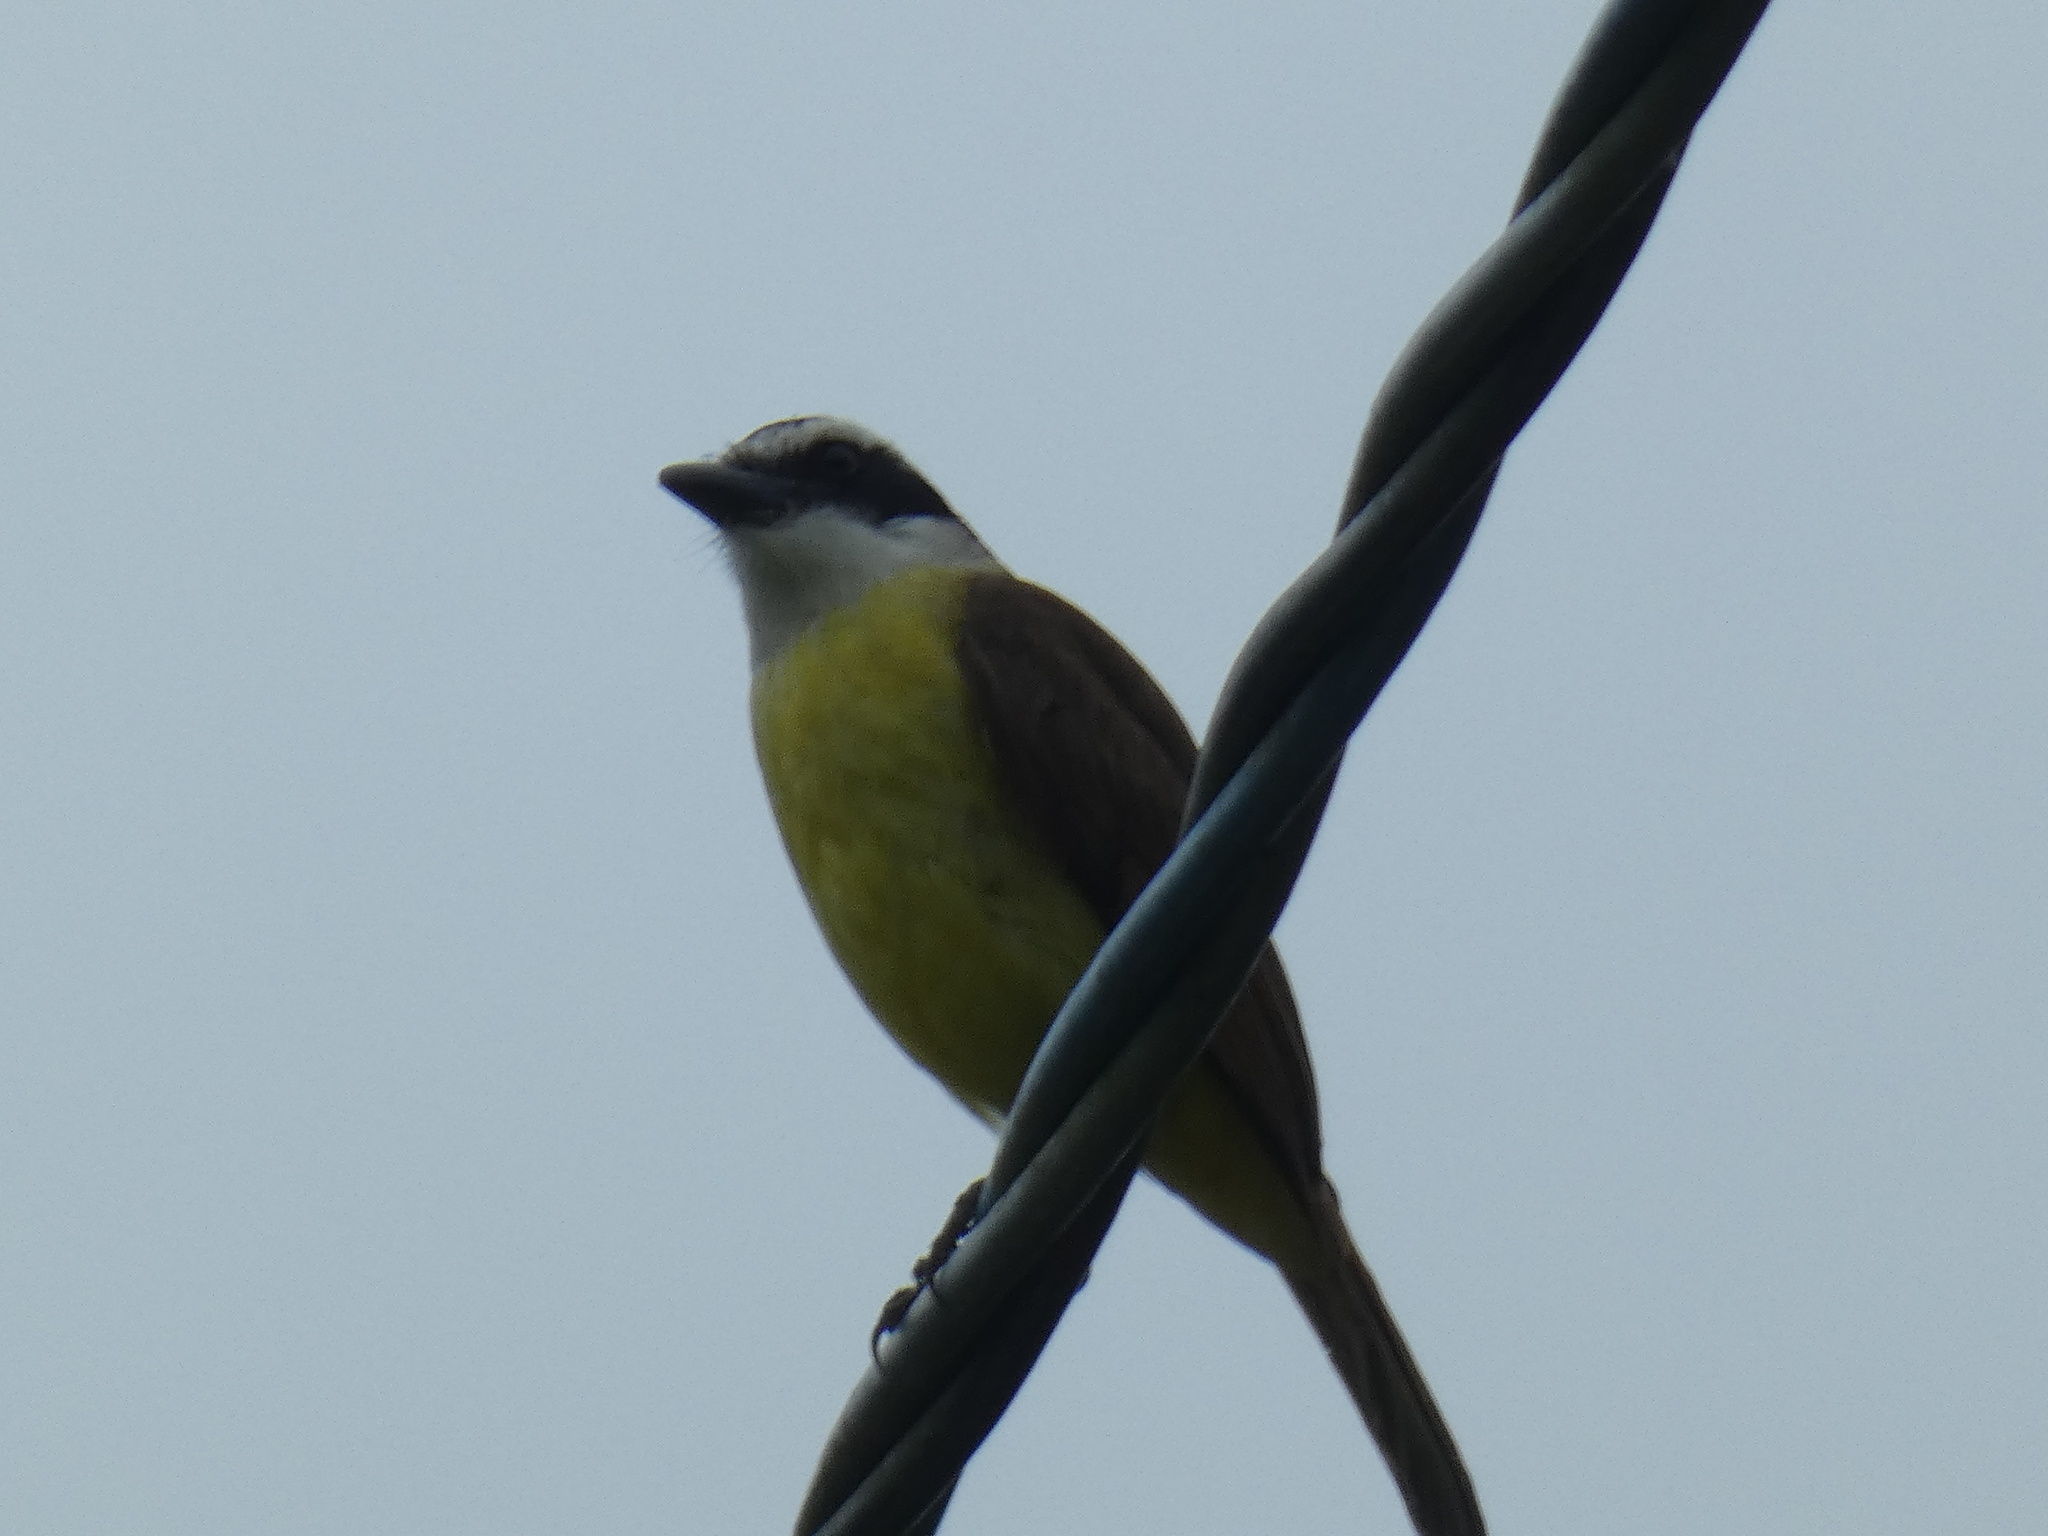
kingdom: Animalia
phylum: Chordata
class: Aves
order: Passeriformes
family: Tyrannidae
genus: Pitangus
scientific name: Pitangus sulphuratus
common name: Great kiskadee
